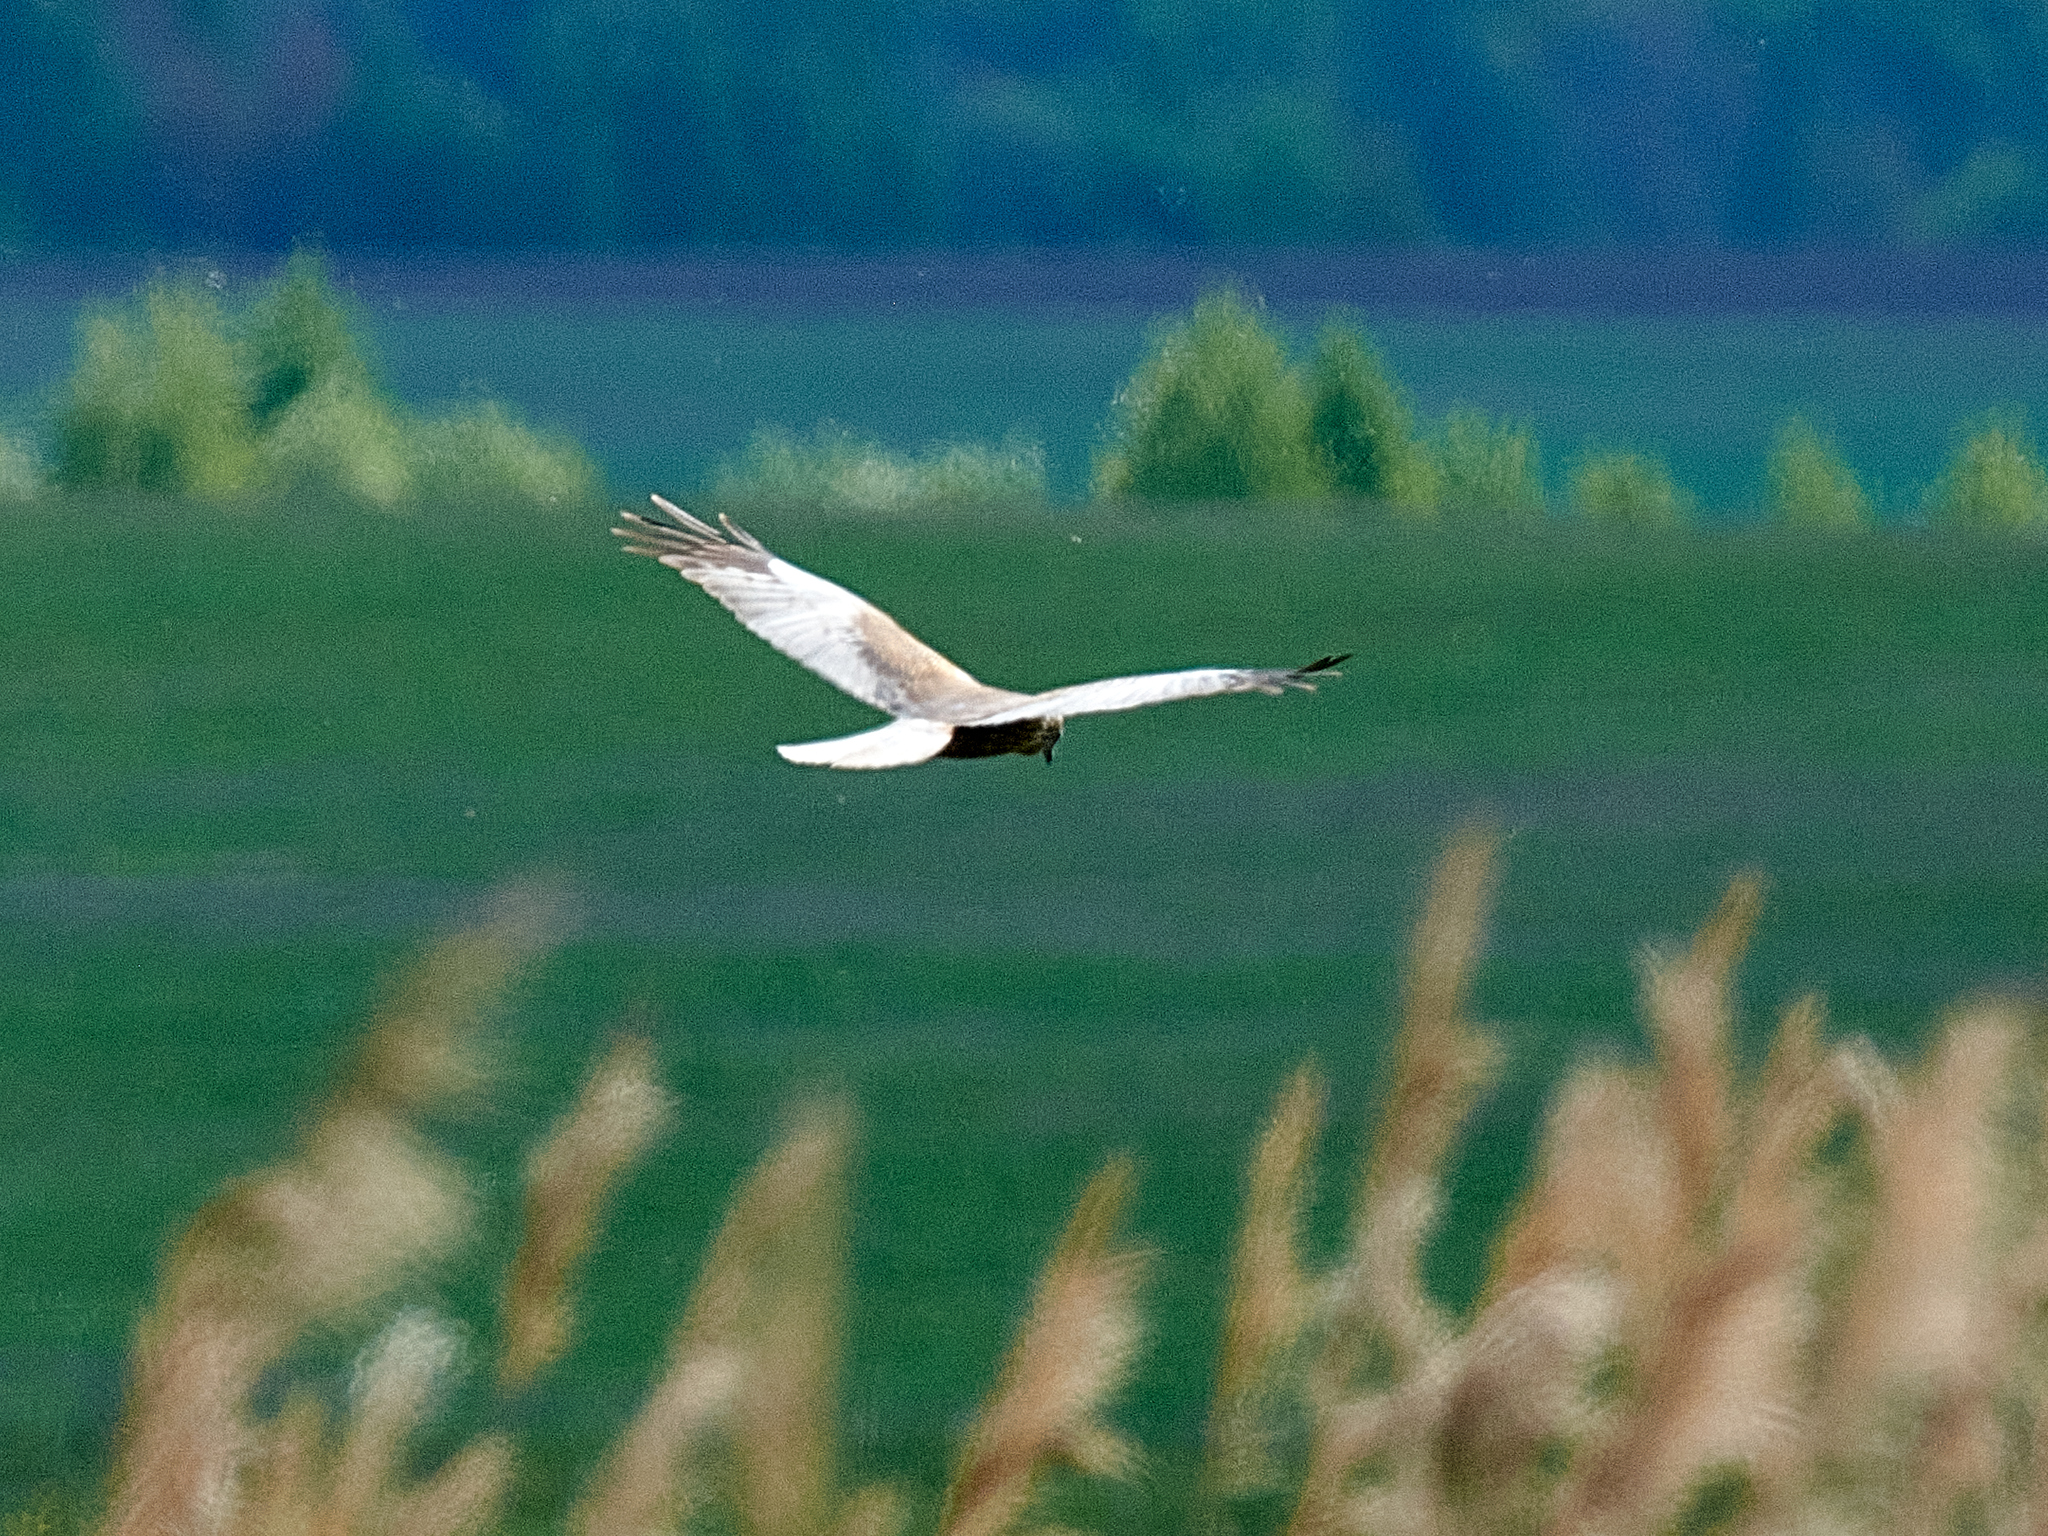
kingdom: Animalia
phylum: Chordata
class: Aves
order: Accipitriformes
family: Accipitridae
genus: Circus
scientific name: Circus aeruginosus
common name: Western marsh harrier
